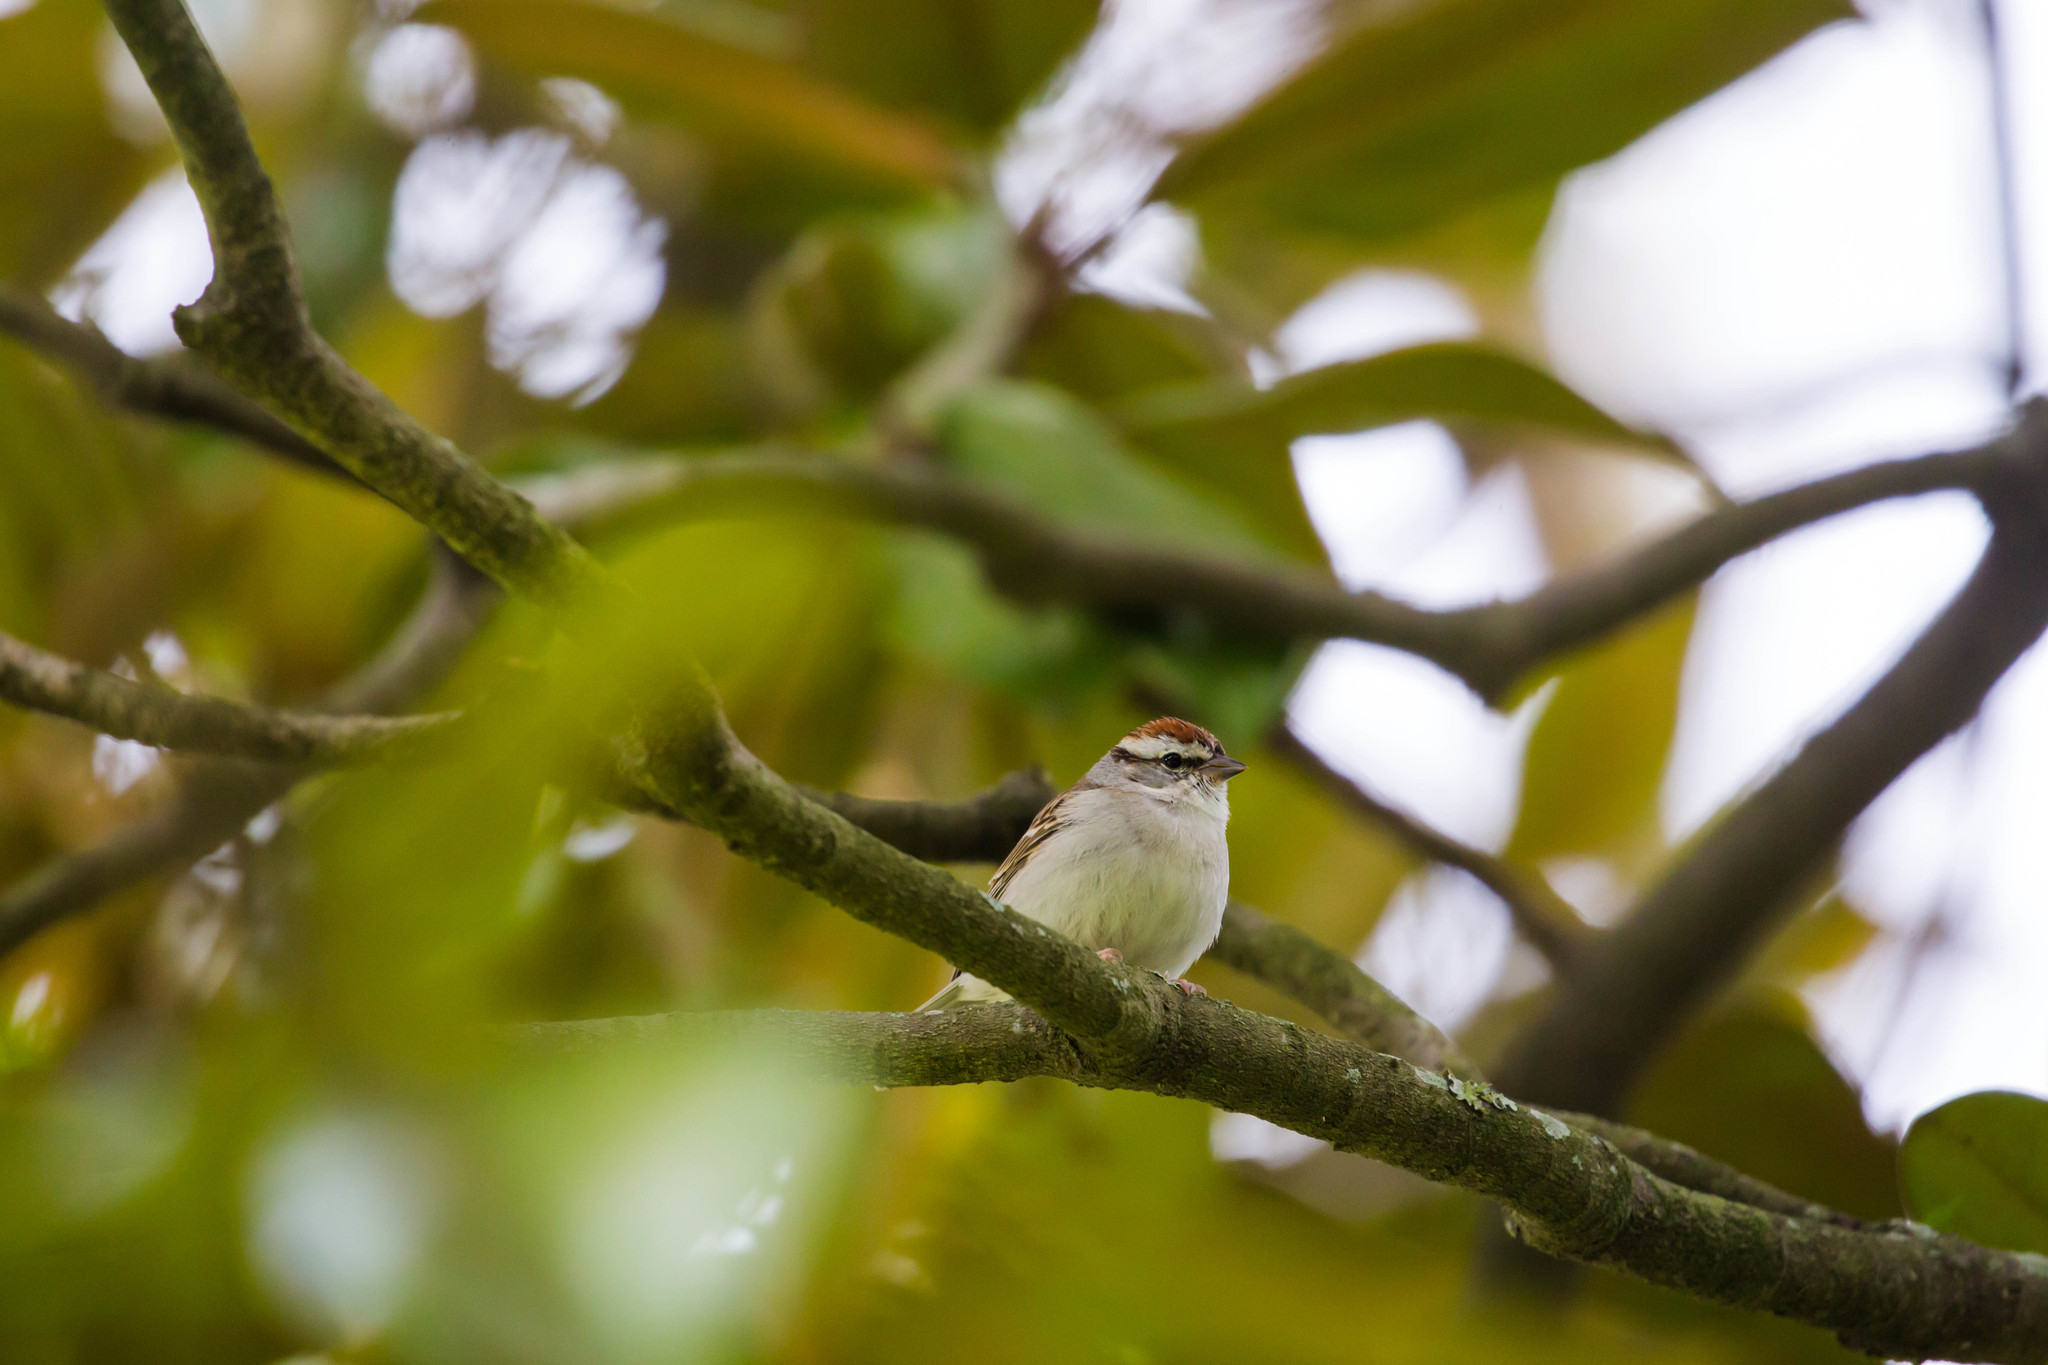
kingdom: Animalia
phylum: Chordata
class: Aves
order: Passeriformes
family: Passerellidae
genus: Spizella
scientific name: Spizella passerina
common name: Chipping sparrow
